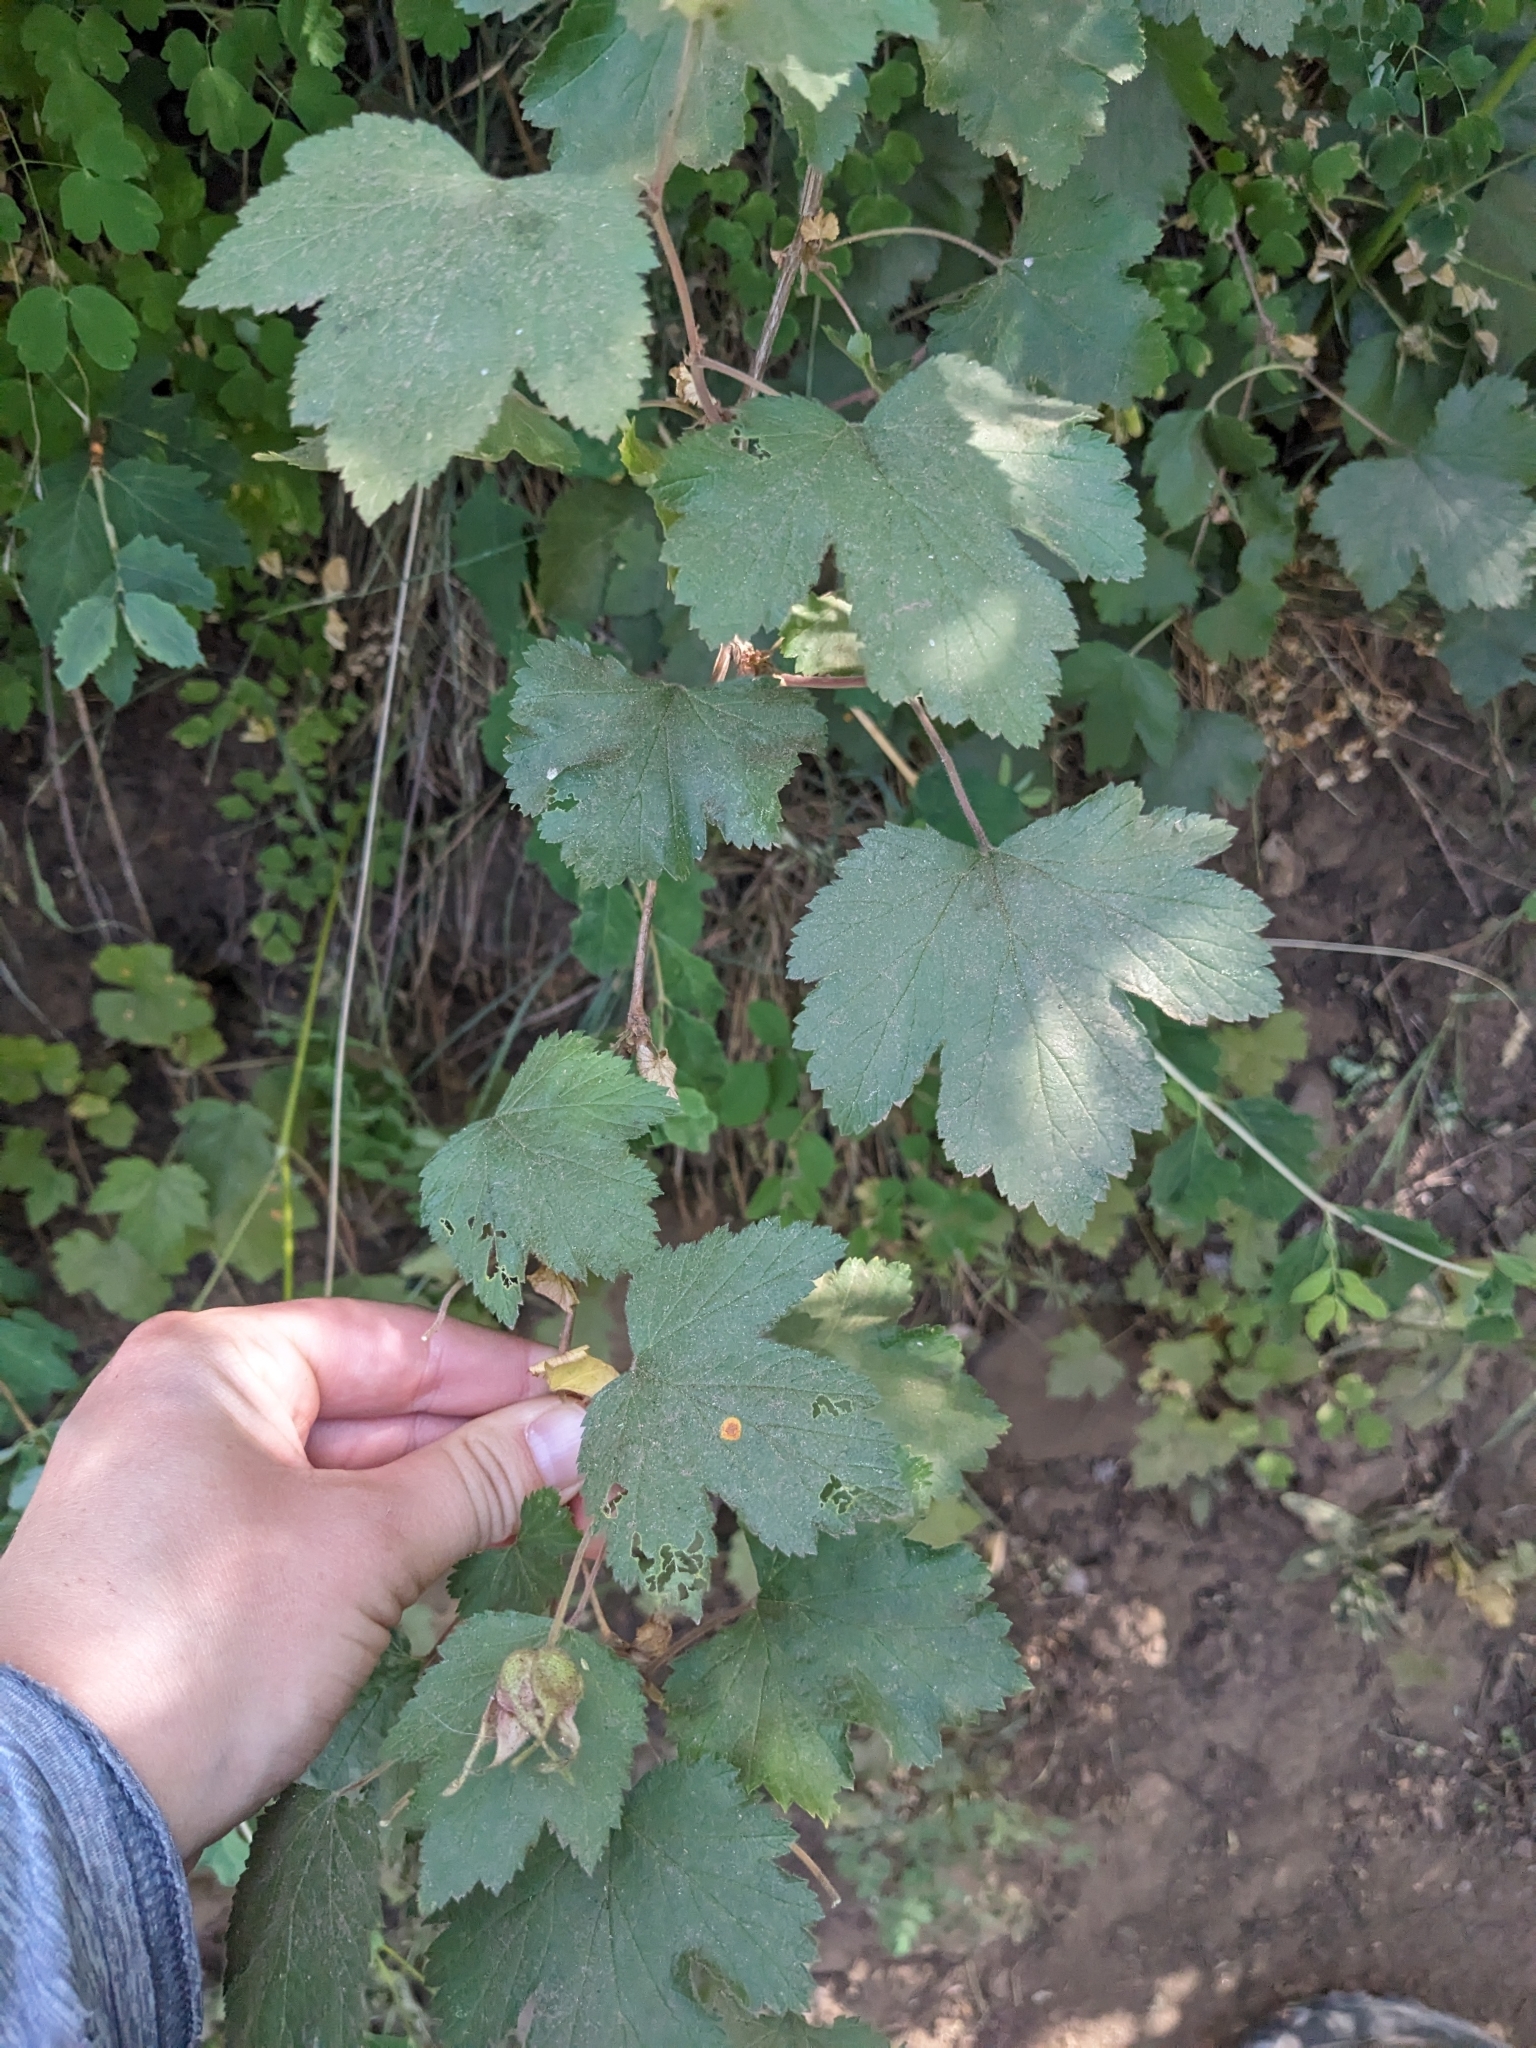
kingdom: Plantae
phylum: Tracheophyta
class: Magnoliopsida
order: Rosales
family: Rosaceae
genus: Rubus
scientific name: Rubus neomexicanus
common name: New mexico raspberry
